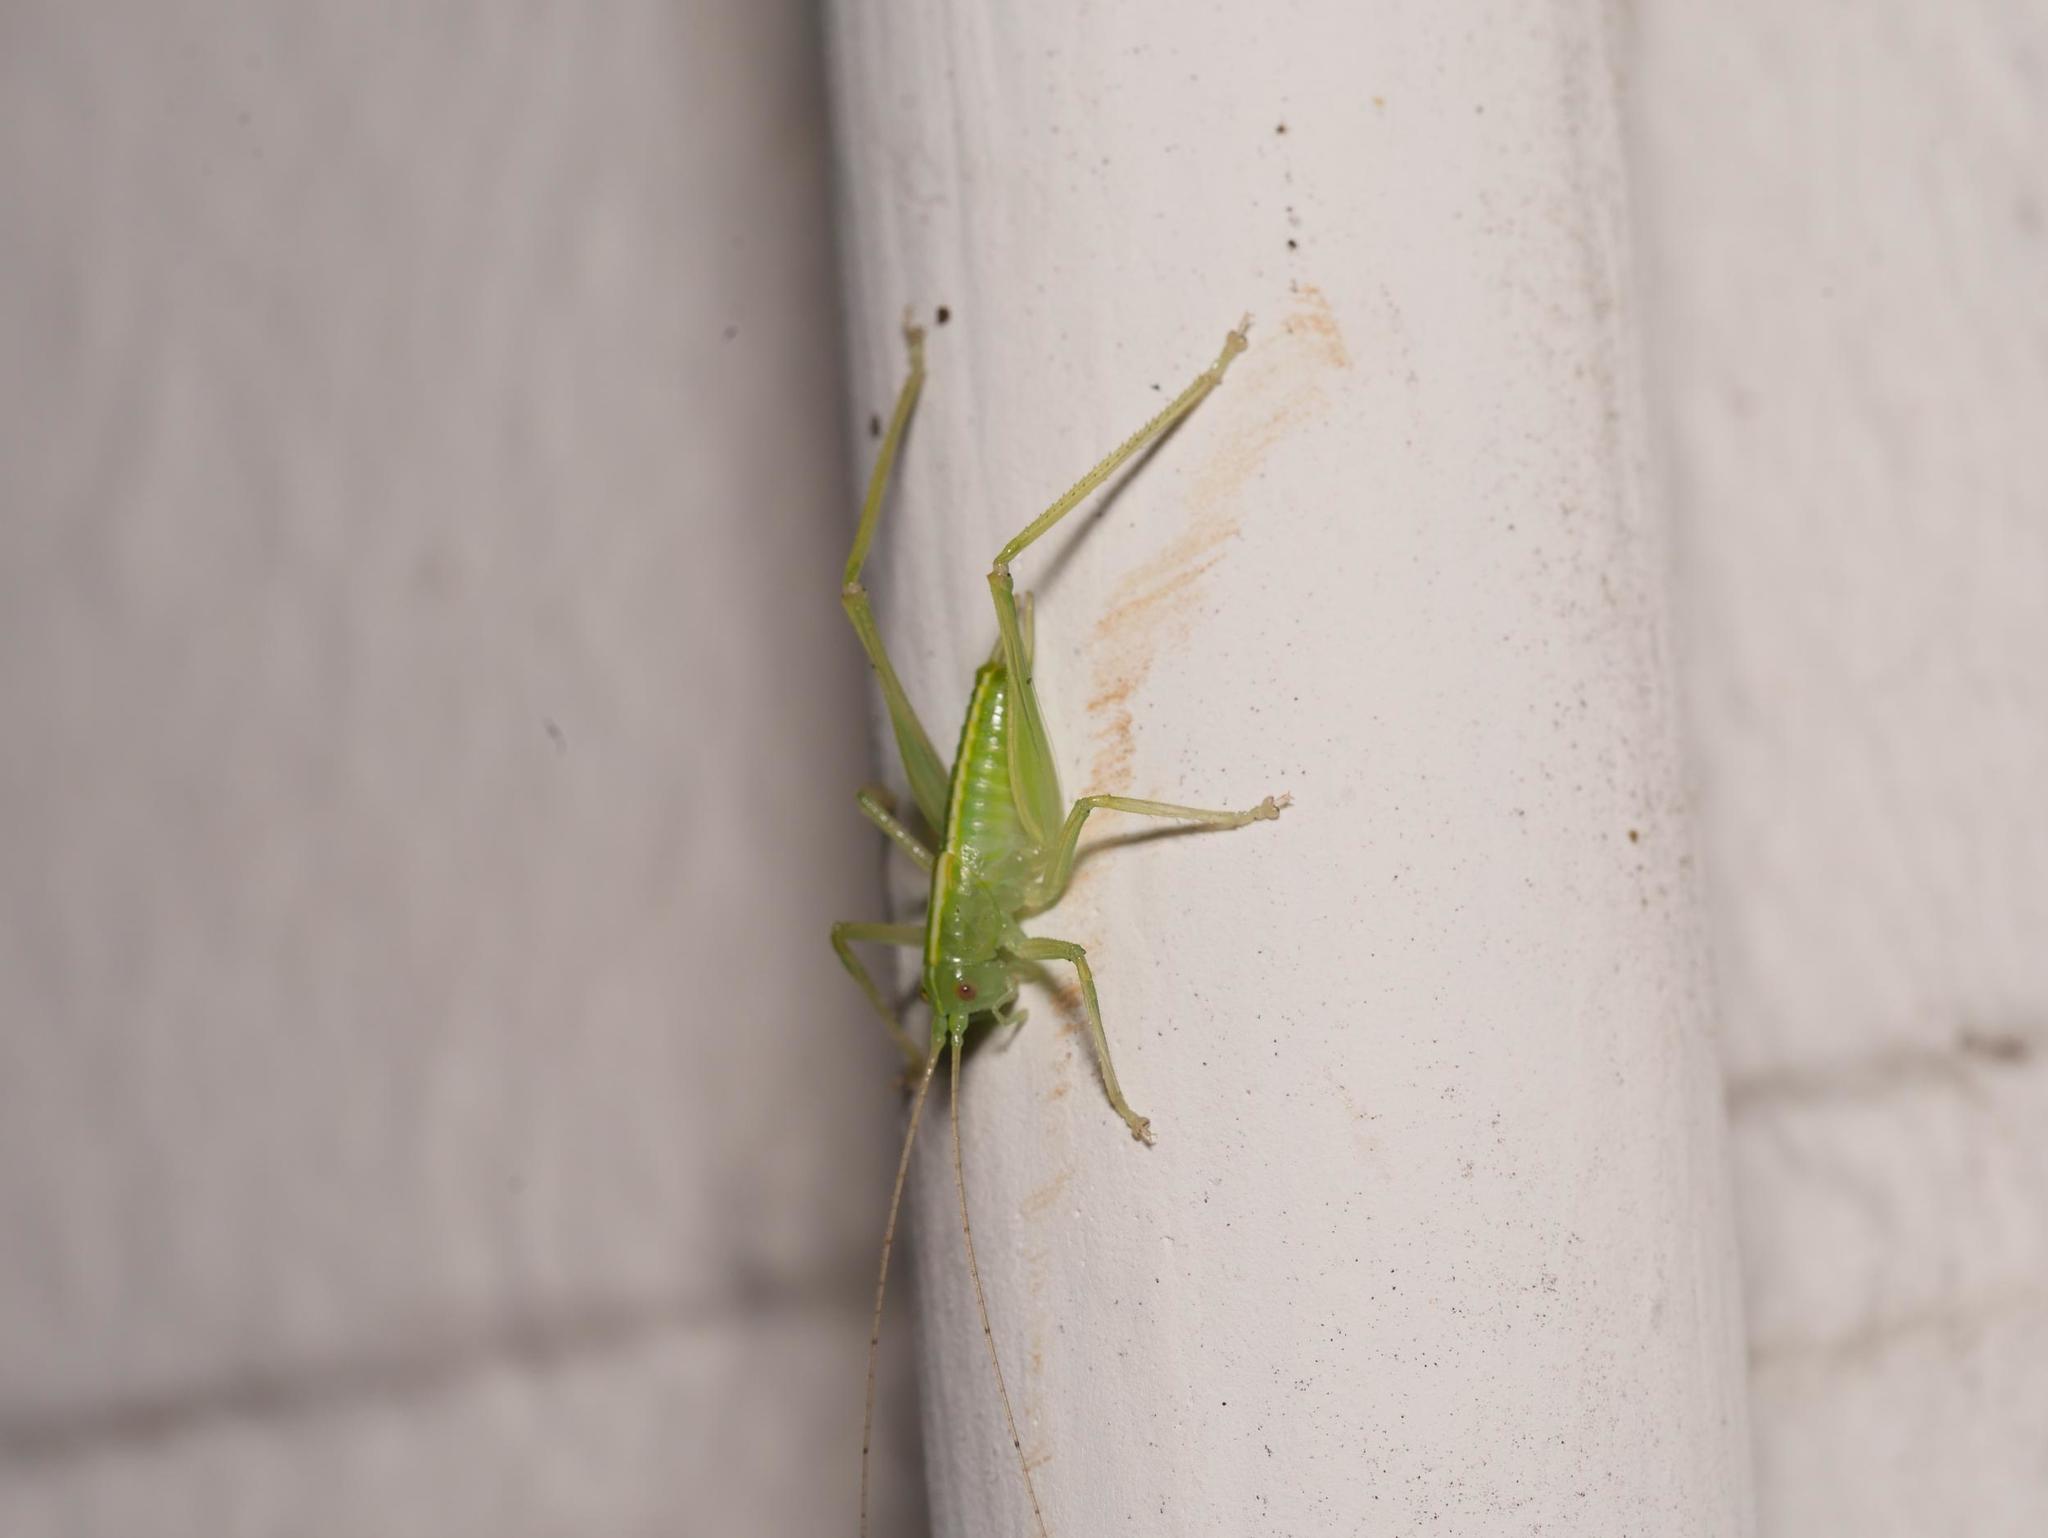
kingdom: Animalia
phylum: Arthropoda
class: Insecta
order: Orthoptera
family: Tettigoniidae
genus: Meconema
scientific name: Meconema meridionale
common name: Southern oak bush-cricket
